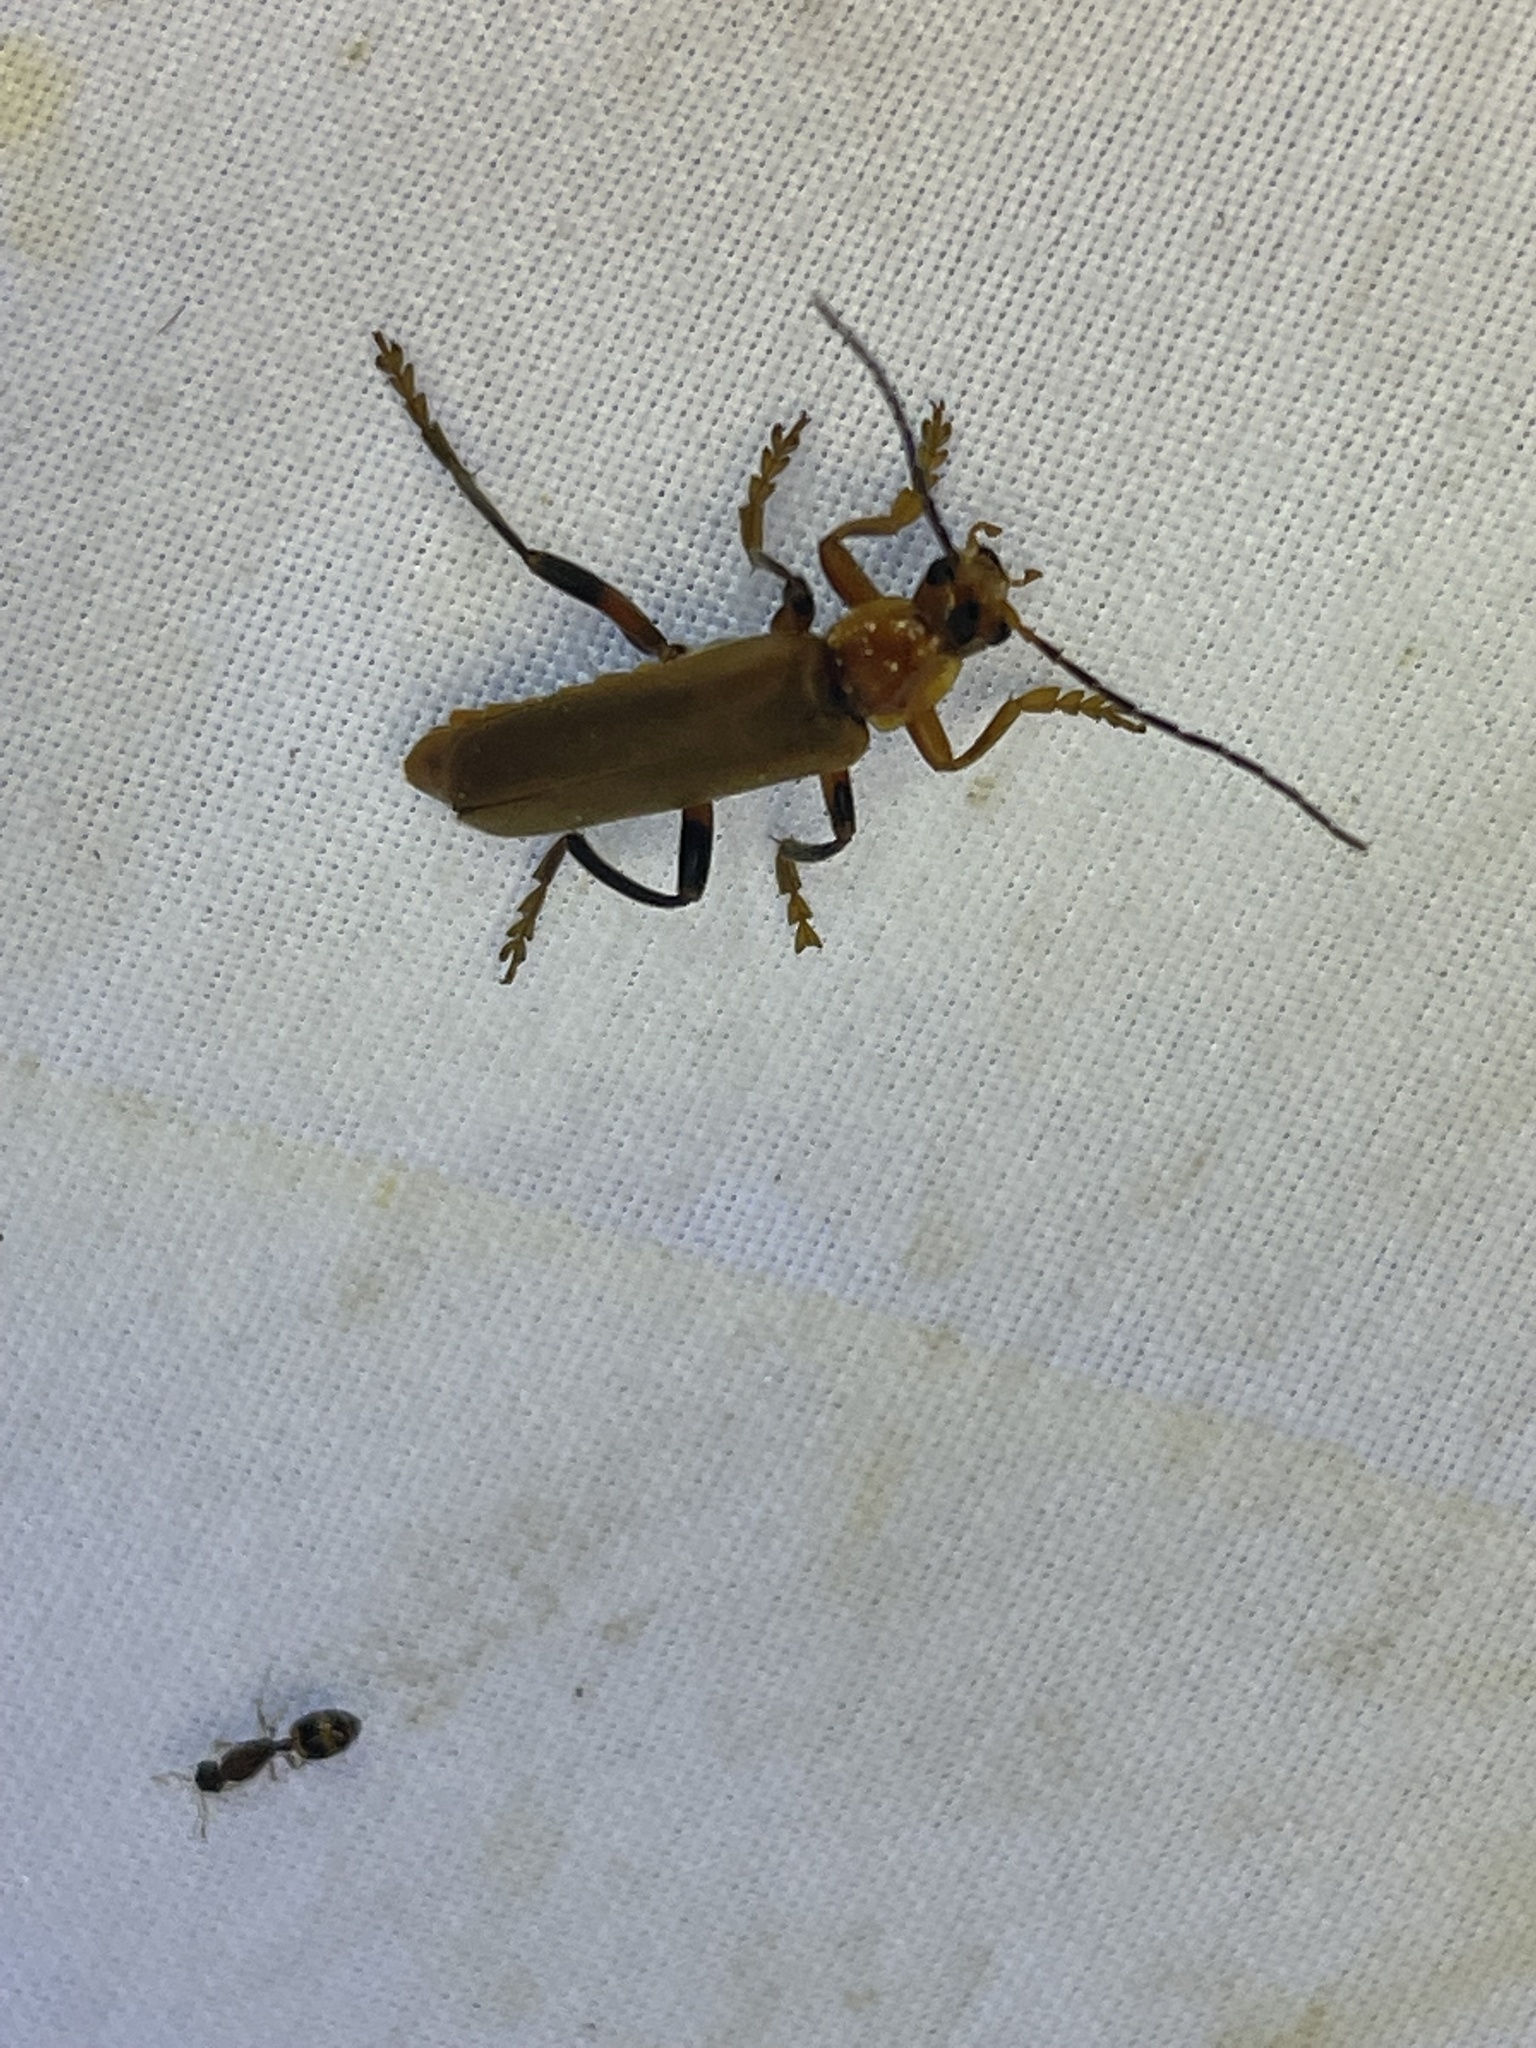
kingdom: Animalia
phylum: Arthropoda
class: Insecta
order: Coleoptera
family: Cantharidae
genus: Cantharis
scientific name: Cantharis livida
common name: Livid soldier beetle
